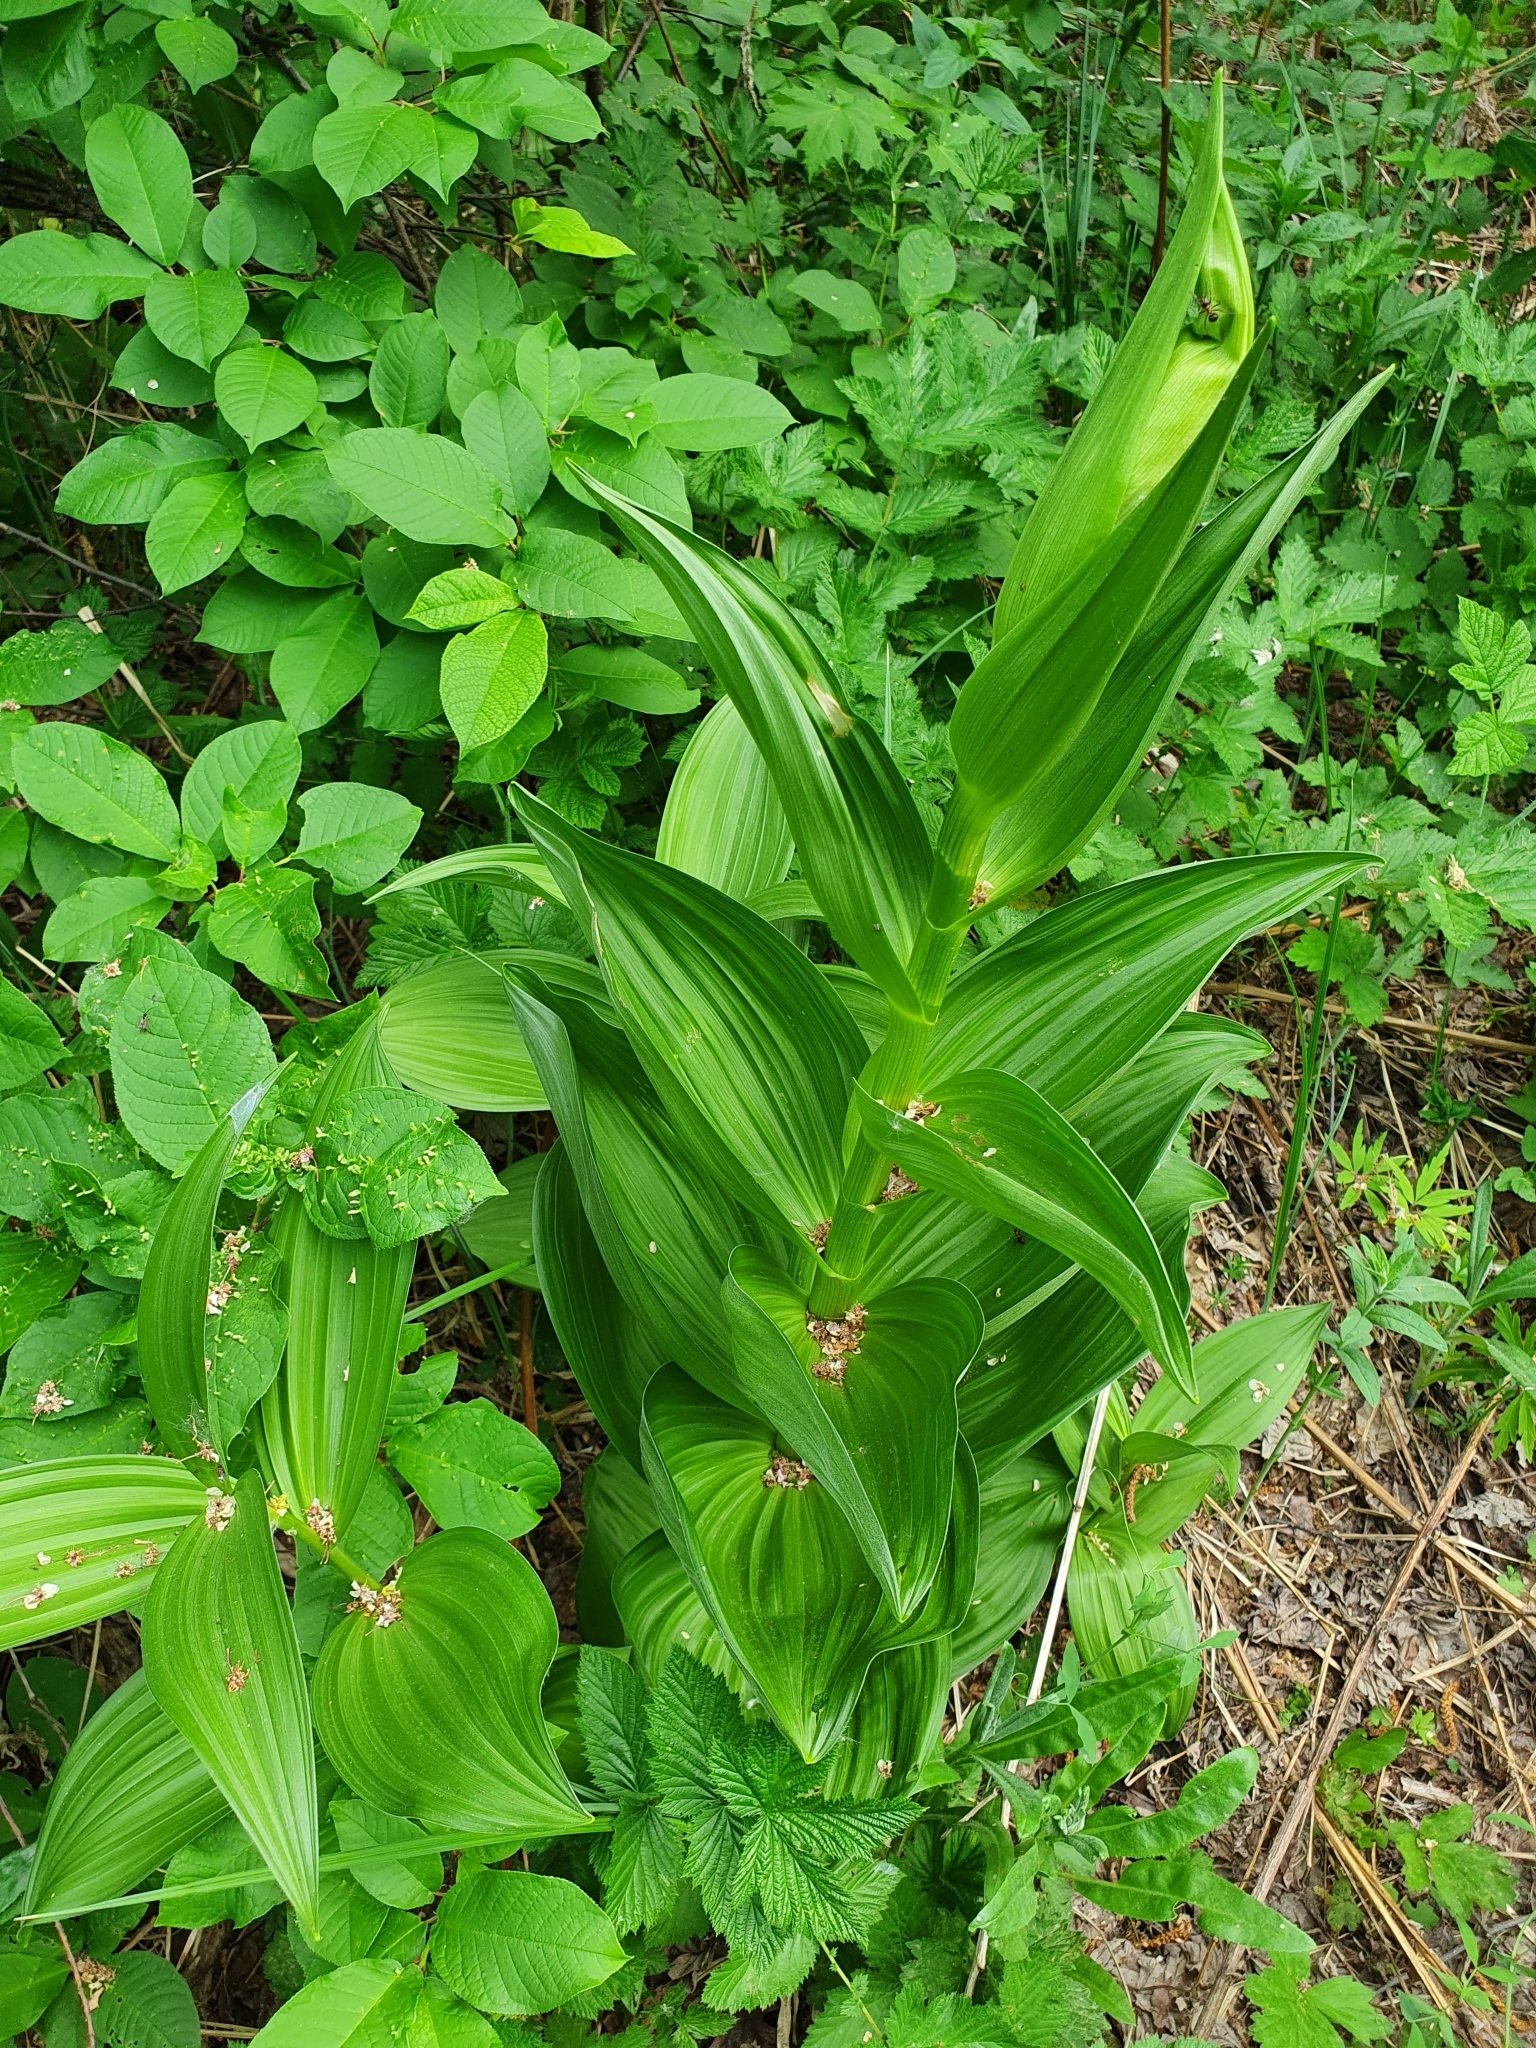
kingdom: Plantae
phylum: Tracheophyta
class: Liliopsida
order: Liliales
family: Melanthiaceae
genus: Veratrum
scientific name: Veratrum lobelianum
